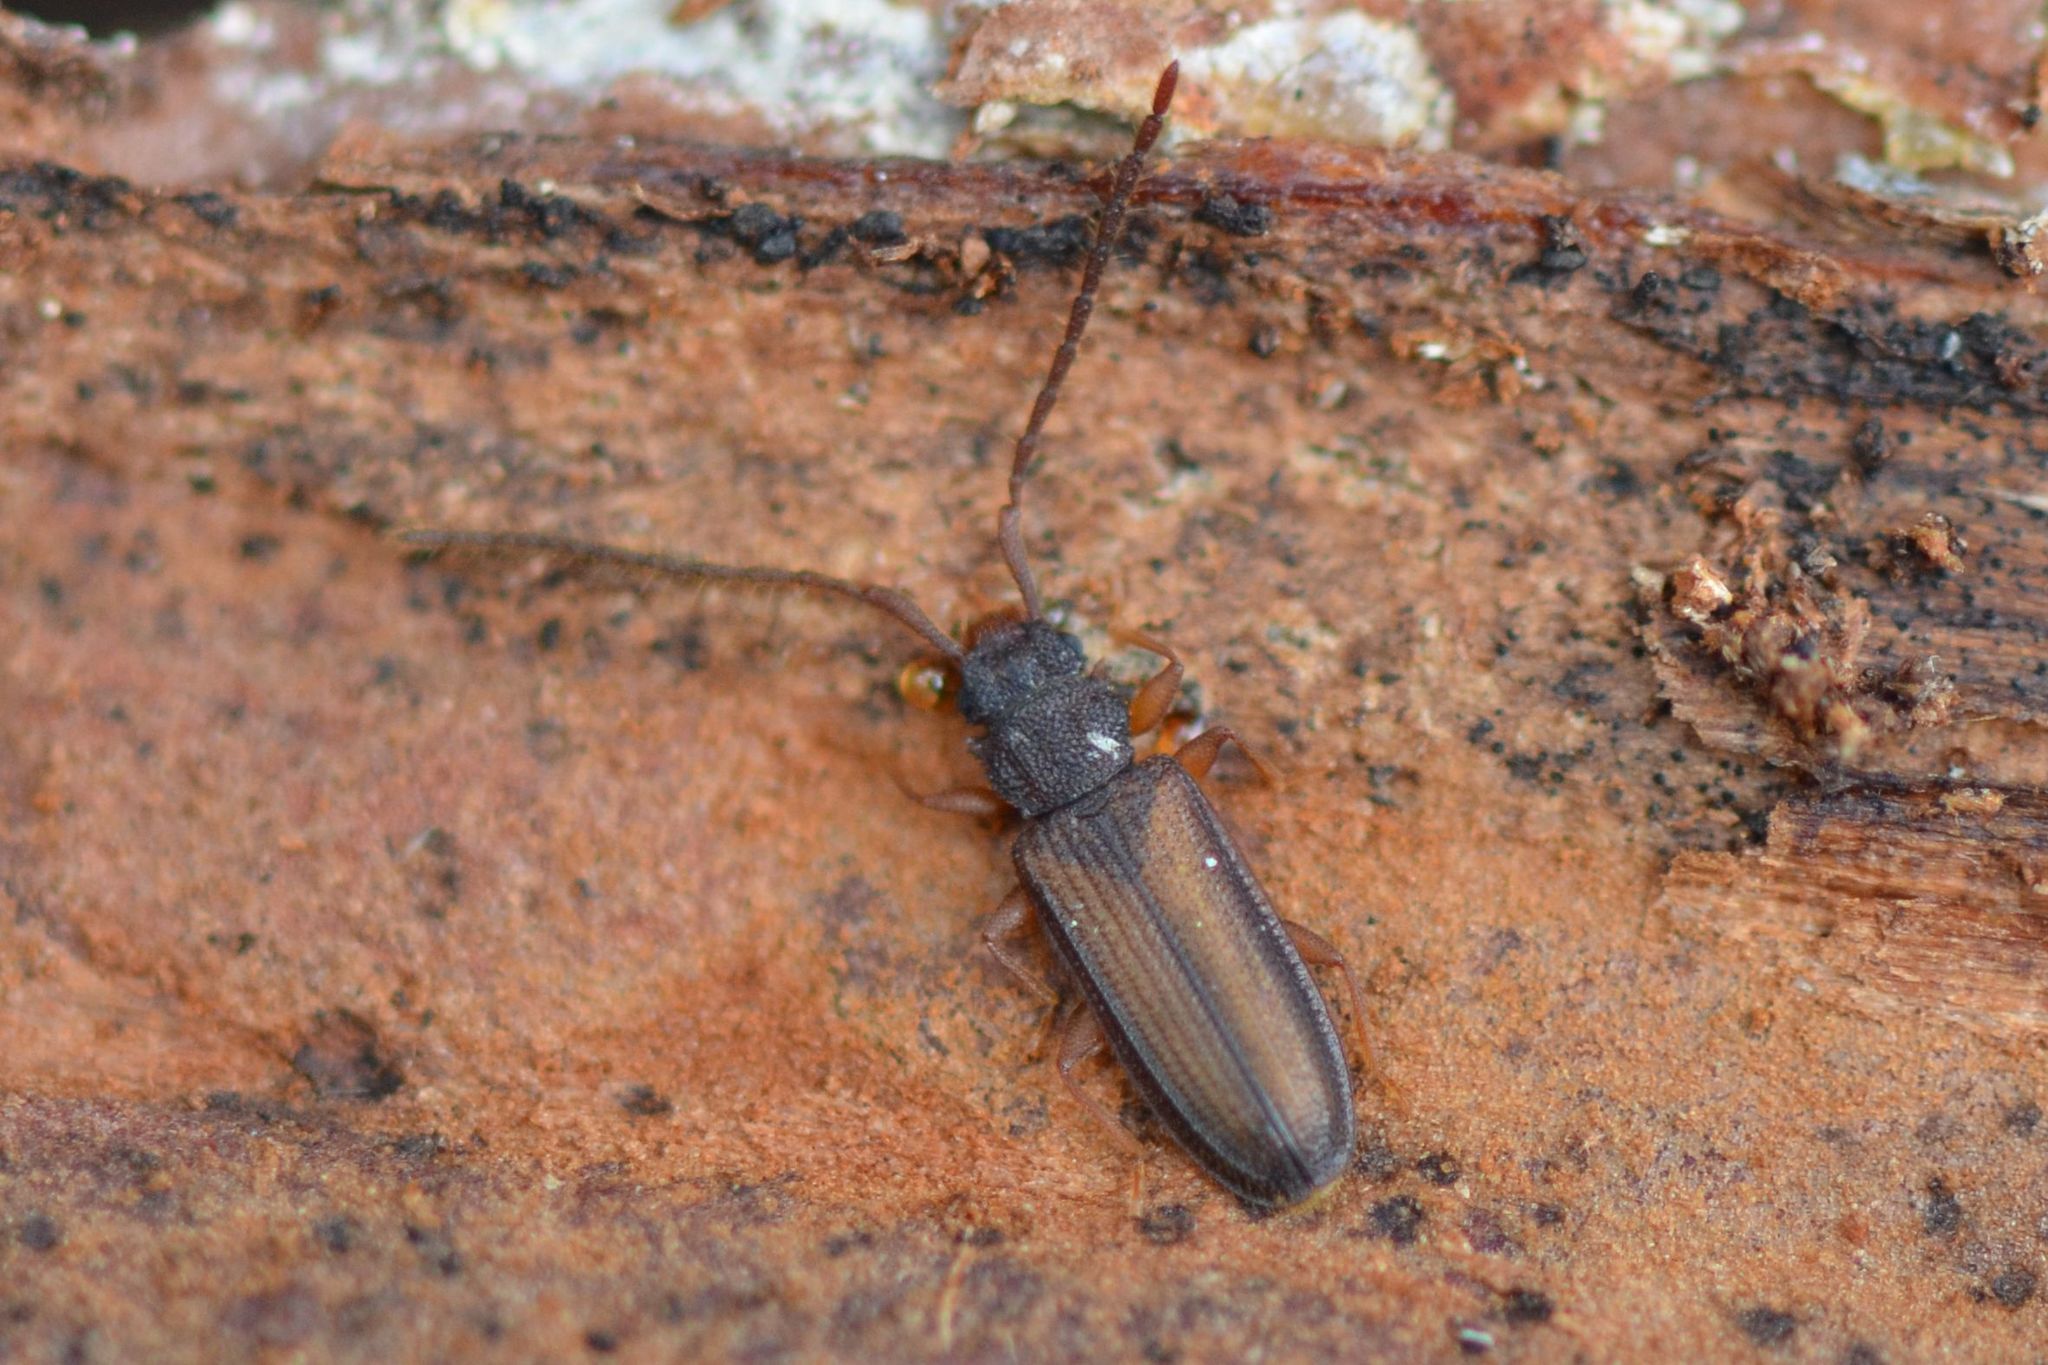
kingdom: Animalia
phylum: Arthropoda
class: Insecta
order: Coleoptera
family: Silvanidae
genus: Uleiota
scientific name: Uleiota planatus
